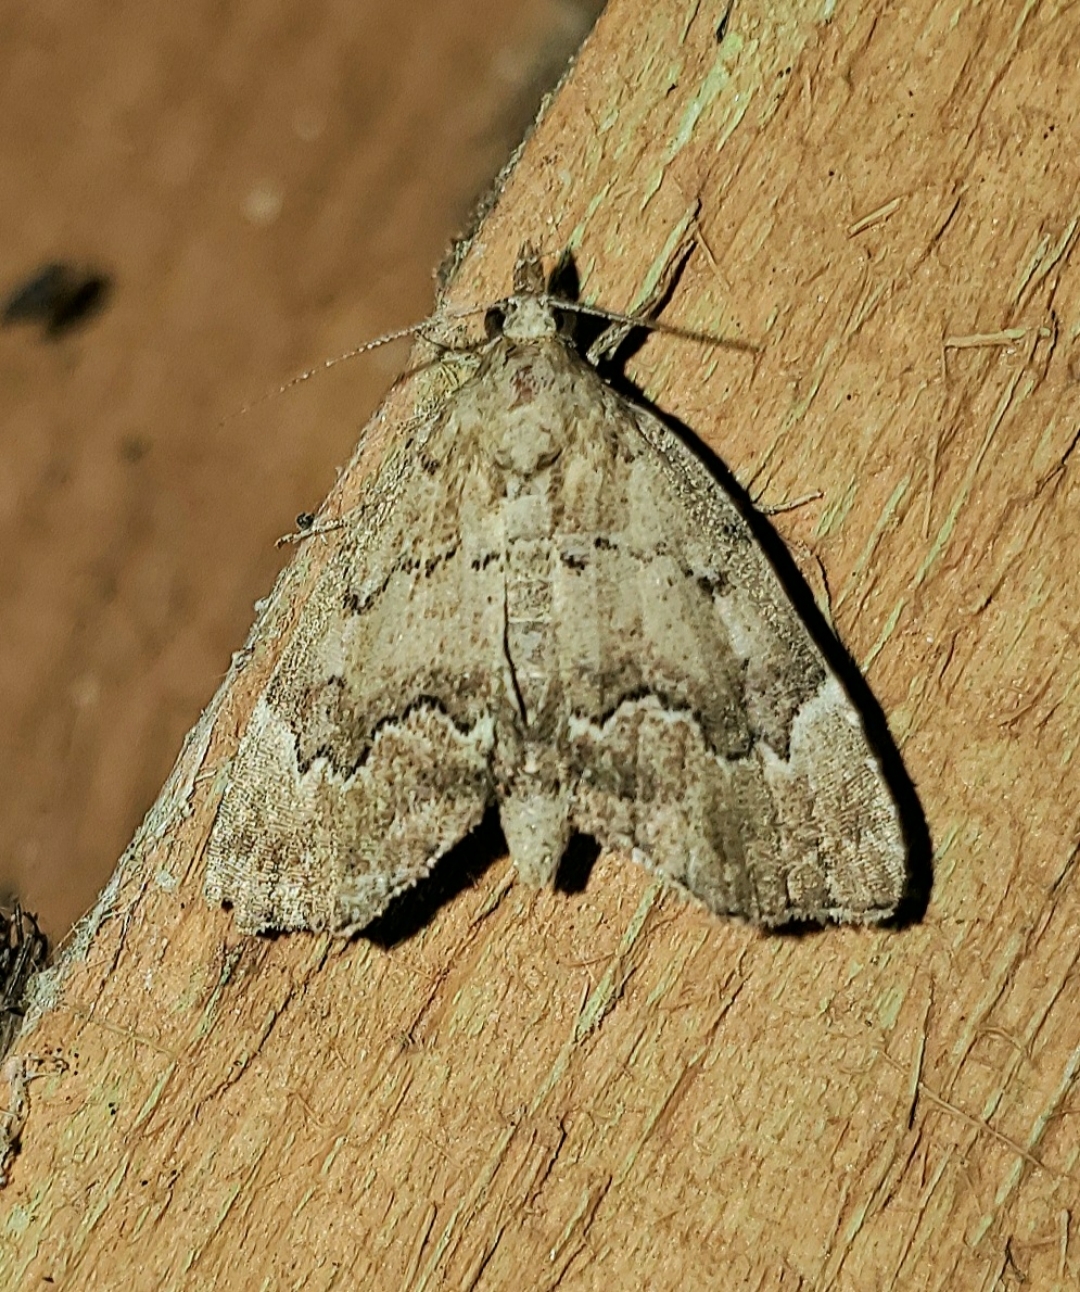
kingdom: Animalia
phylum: Arthropoda
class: Insecta
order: Lepidoptera
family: Erebidae
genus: Cutina
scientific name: Cutina aluticolor
